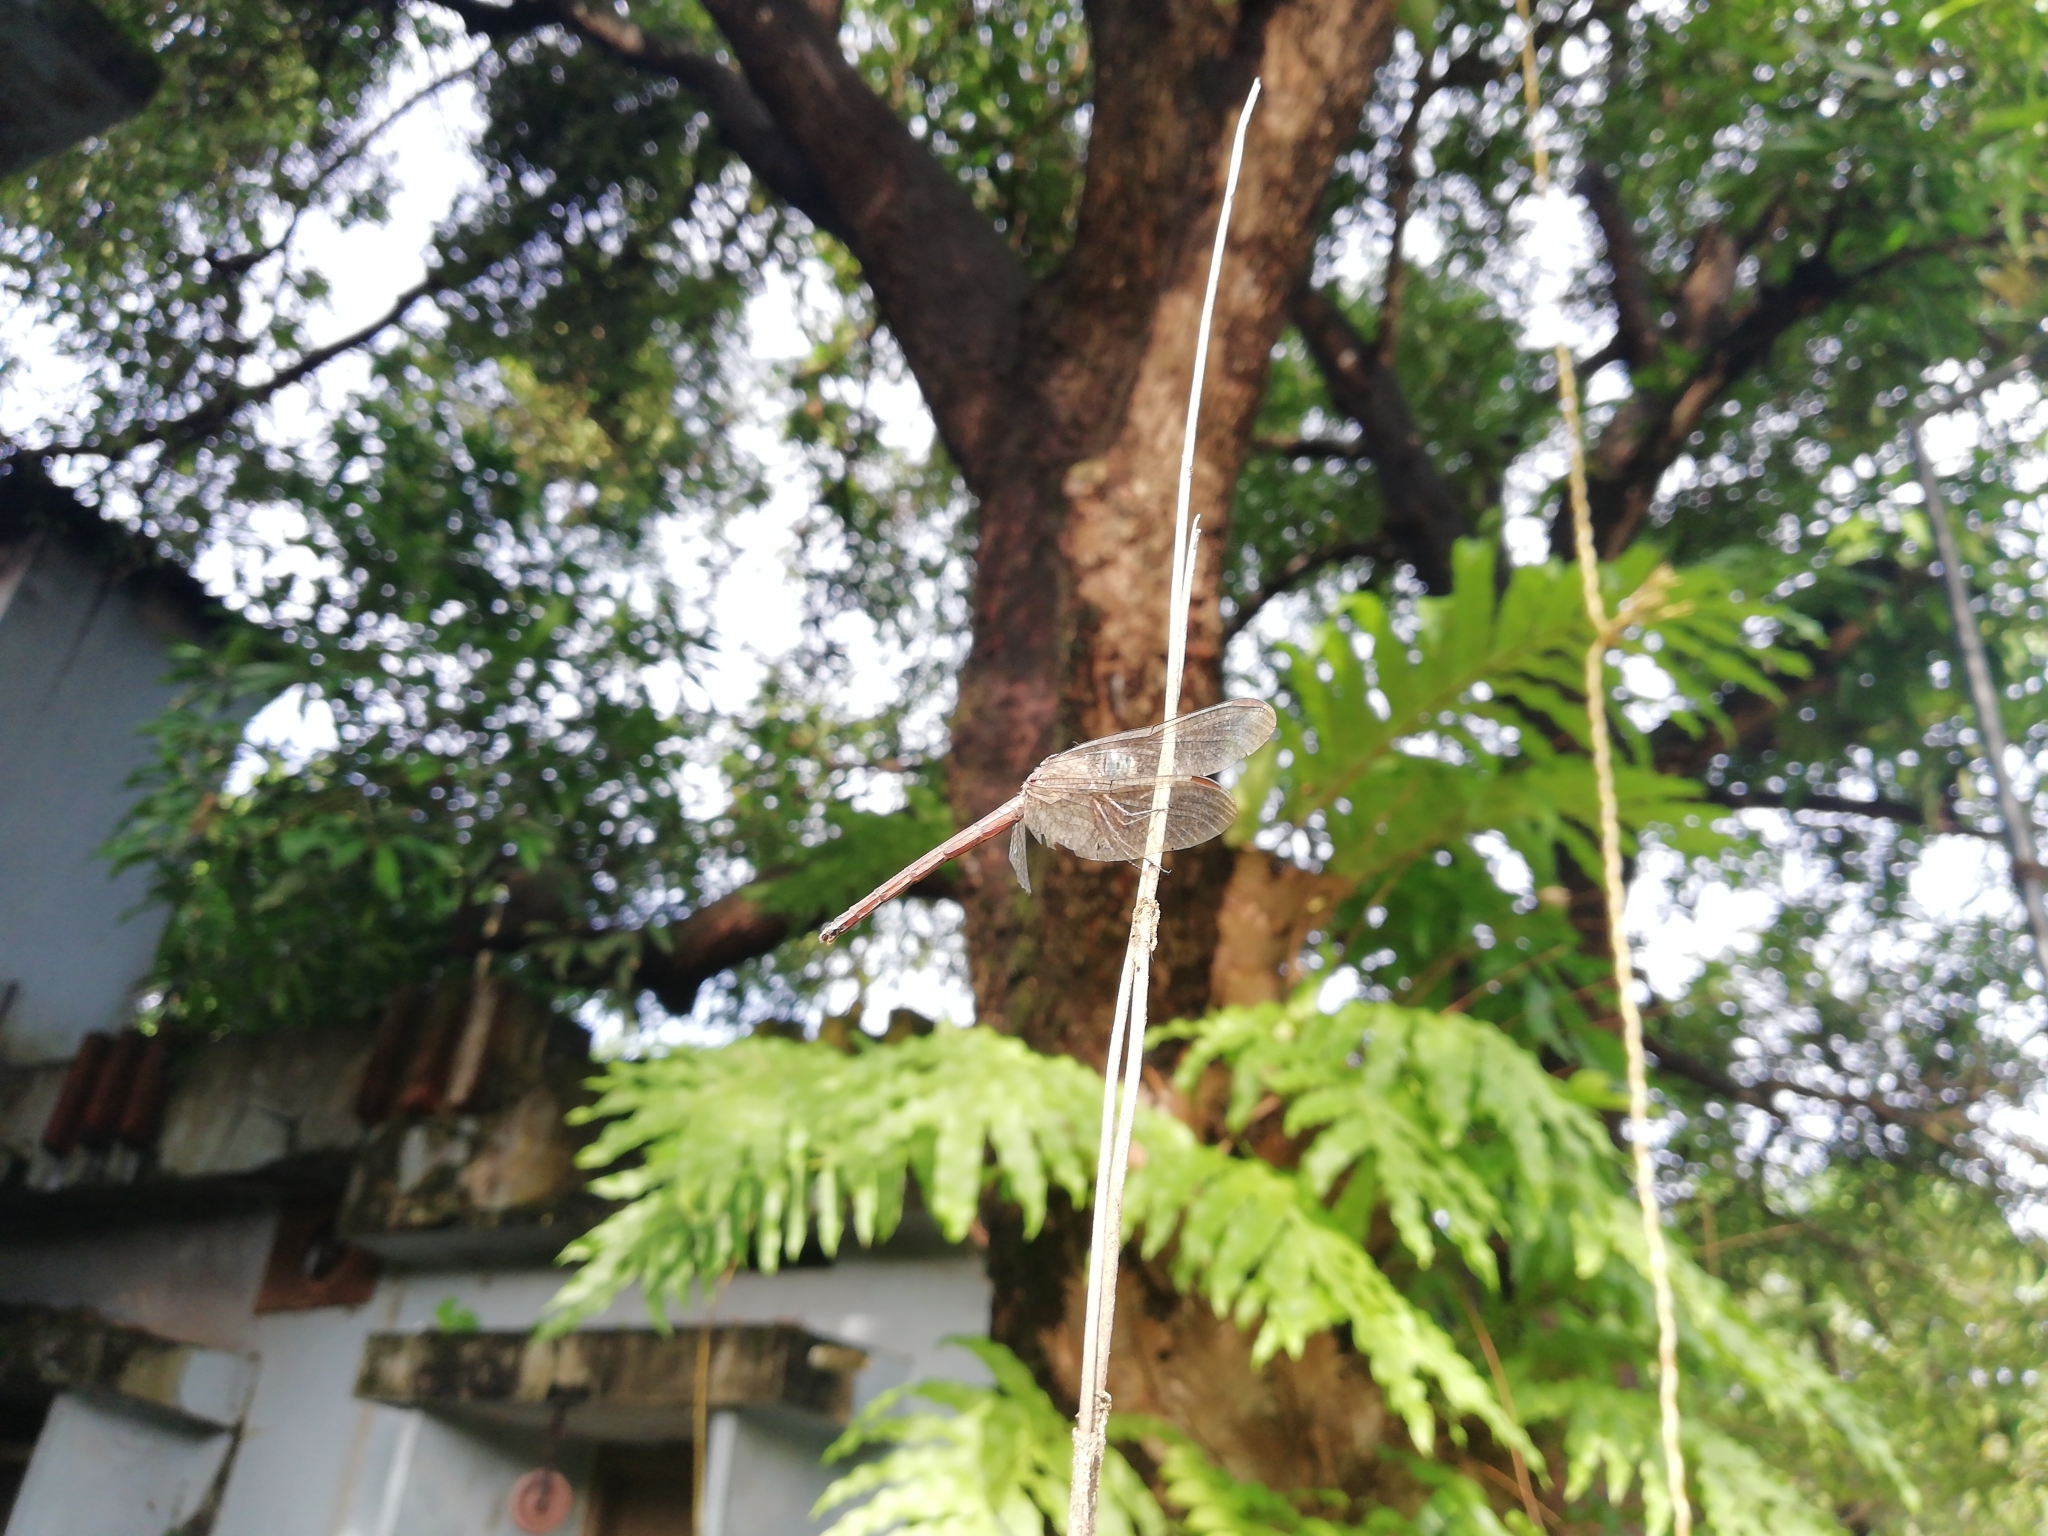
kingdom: Animalia
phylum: Arthropoda
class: Insecta
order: Odonata
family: Libellulidae
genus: Lathrecista
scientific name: Lathrecista asiatica
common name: Scarlet grenadier
